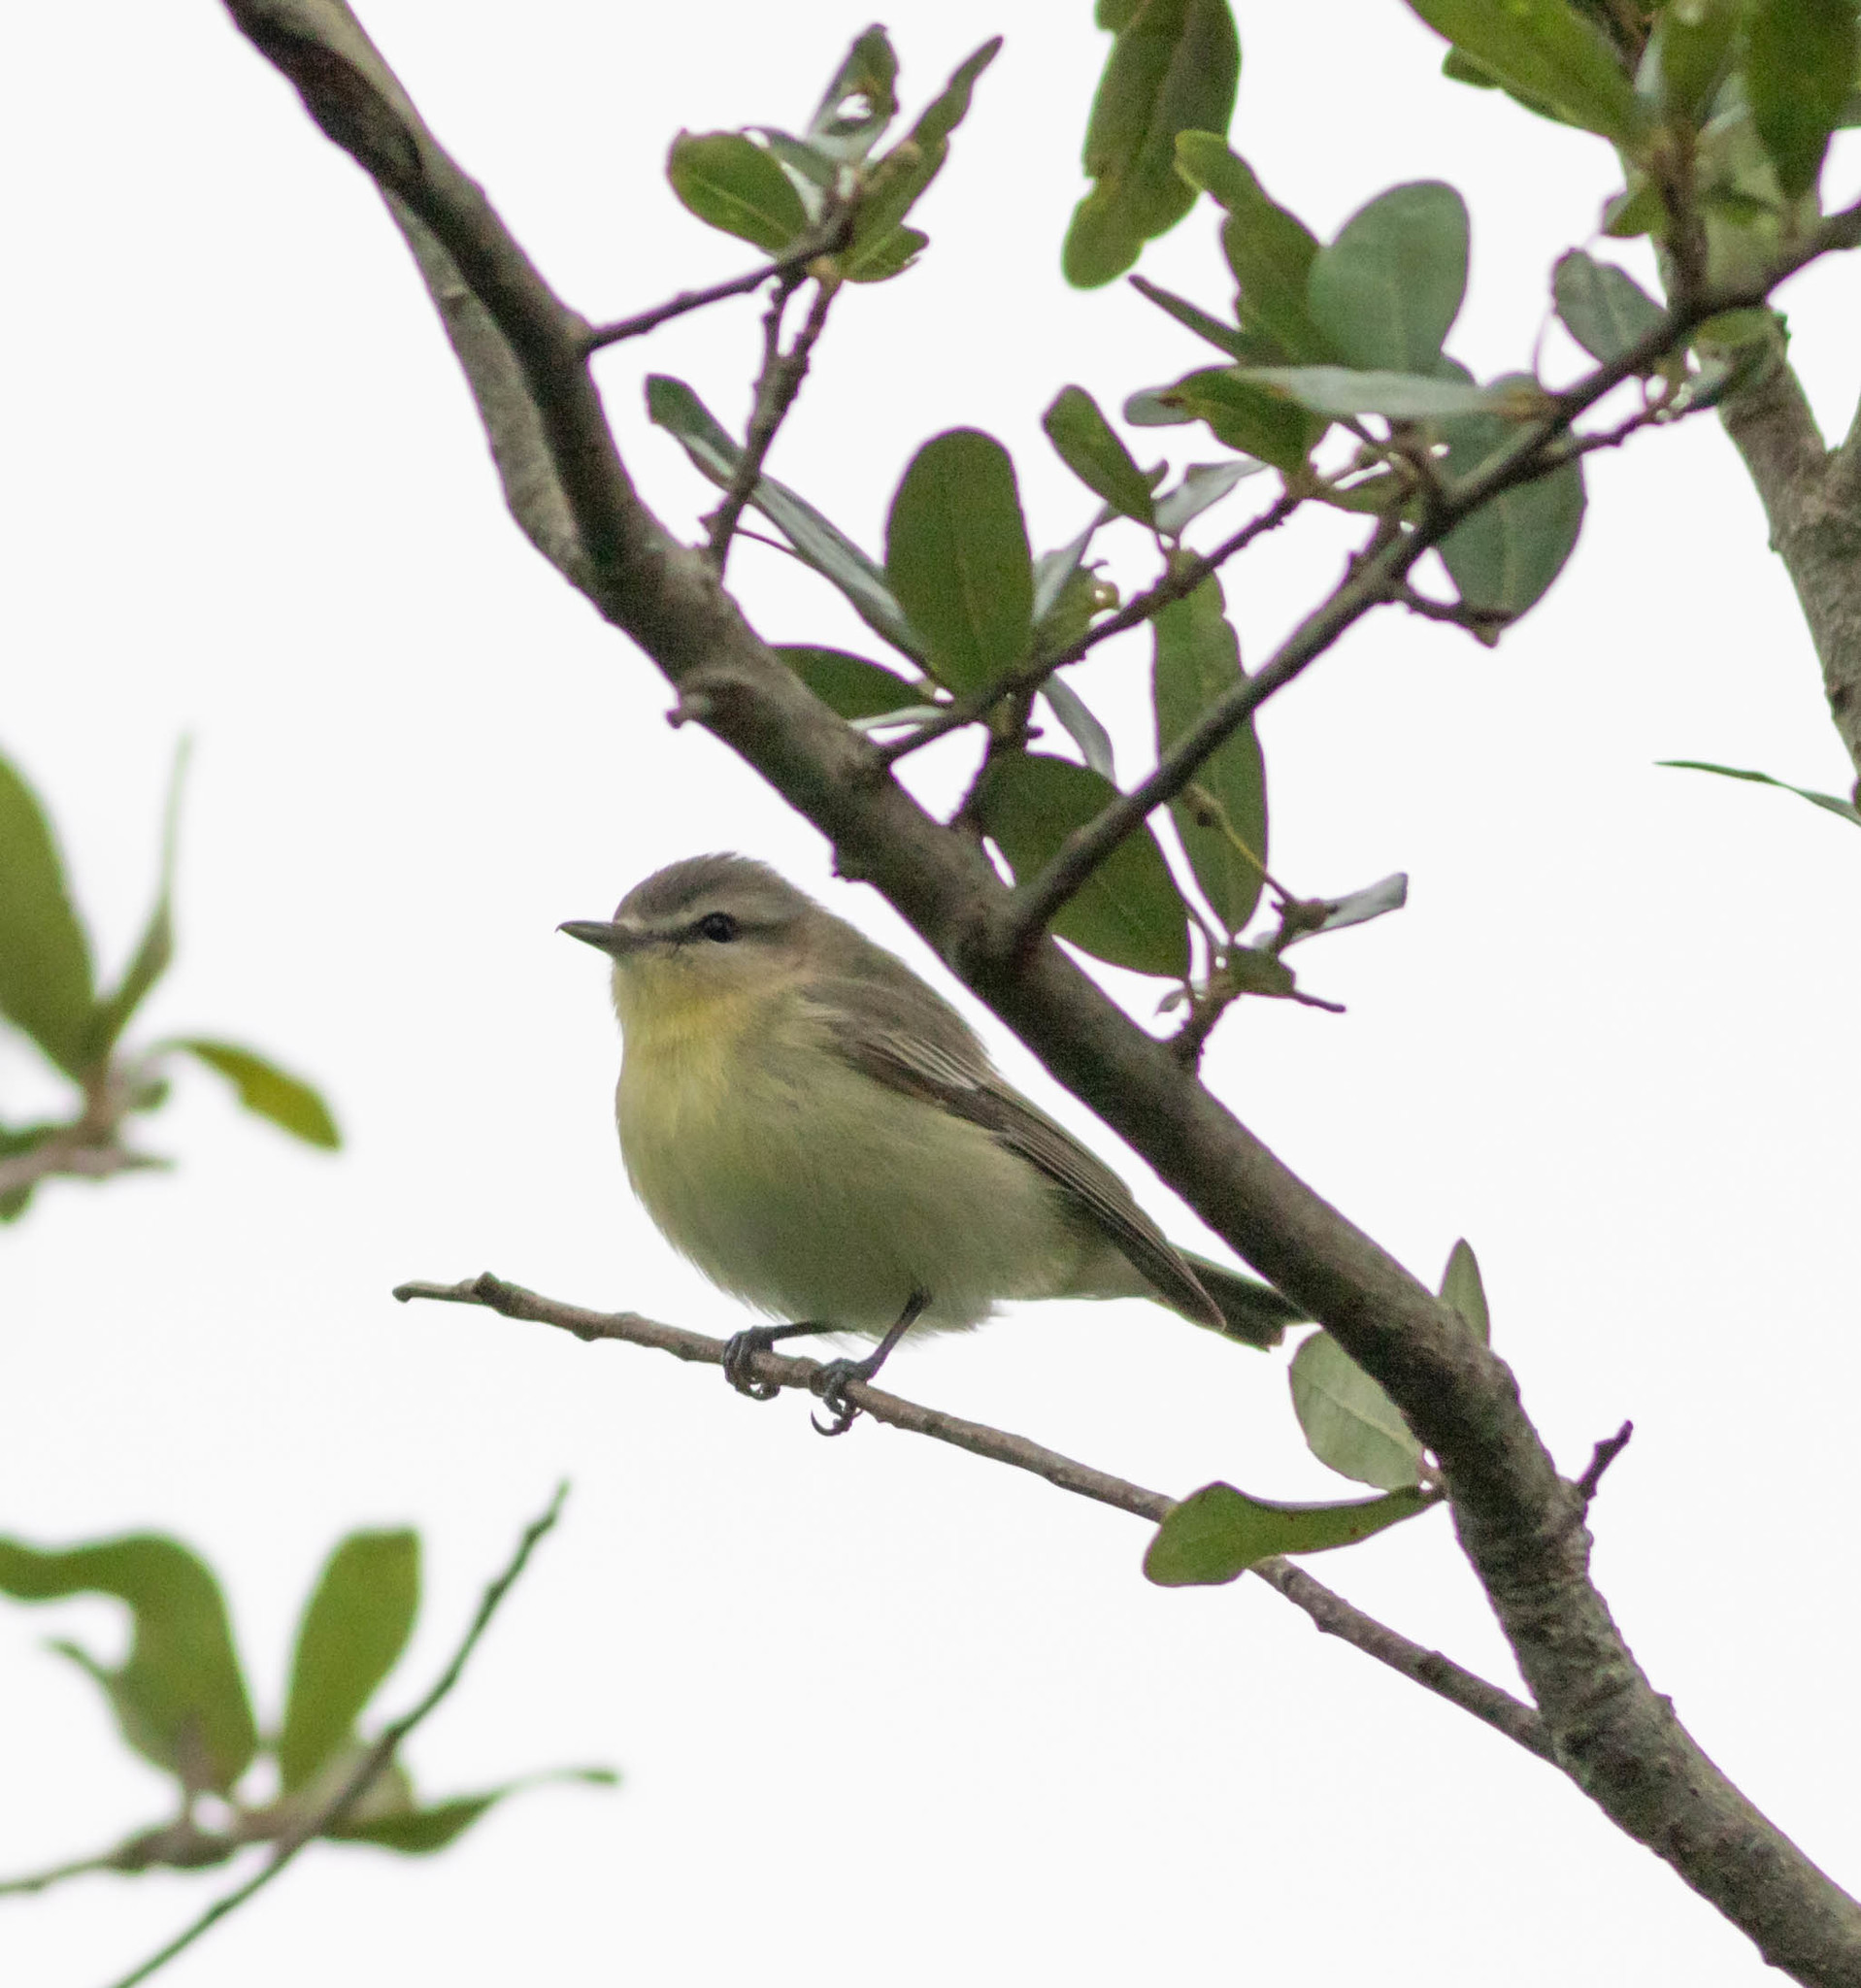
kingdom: Animalia
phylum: Chordata
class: Aves
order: Passeriformes
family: Vireonidae
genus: Vireo
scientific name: Vireo philadelphicus
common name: Philadelphia vireo
